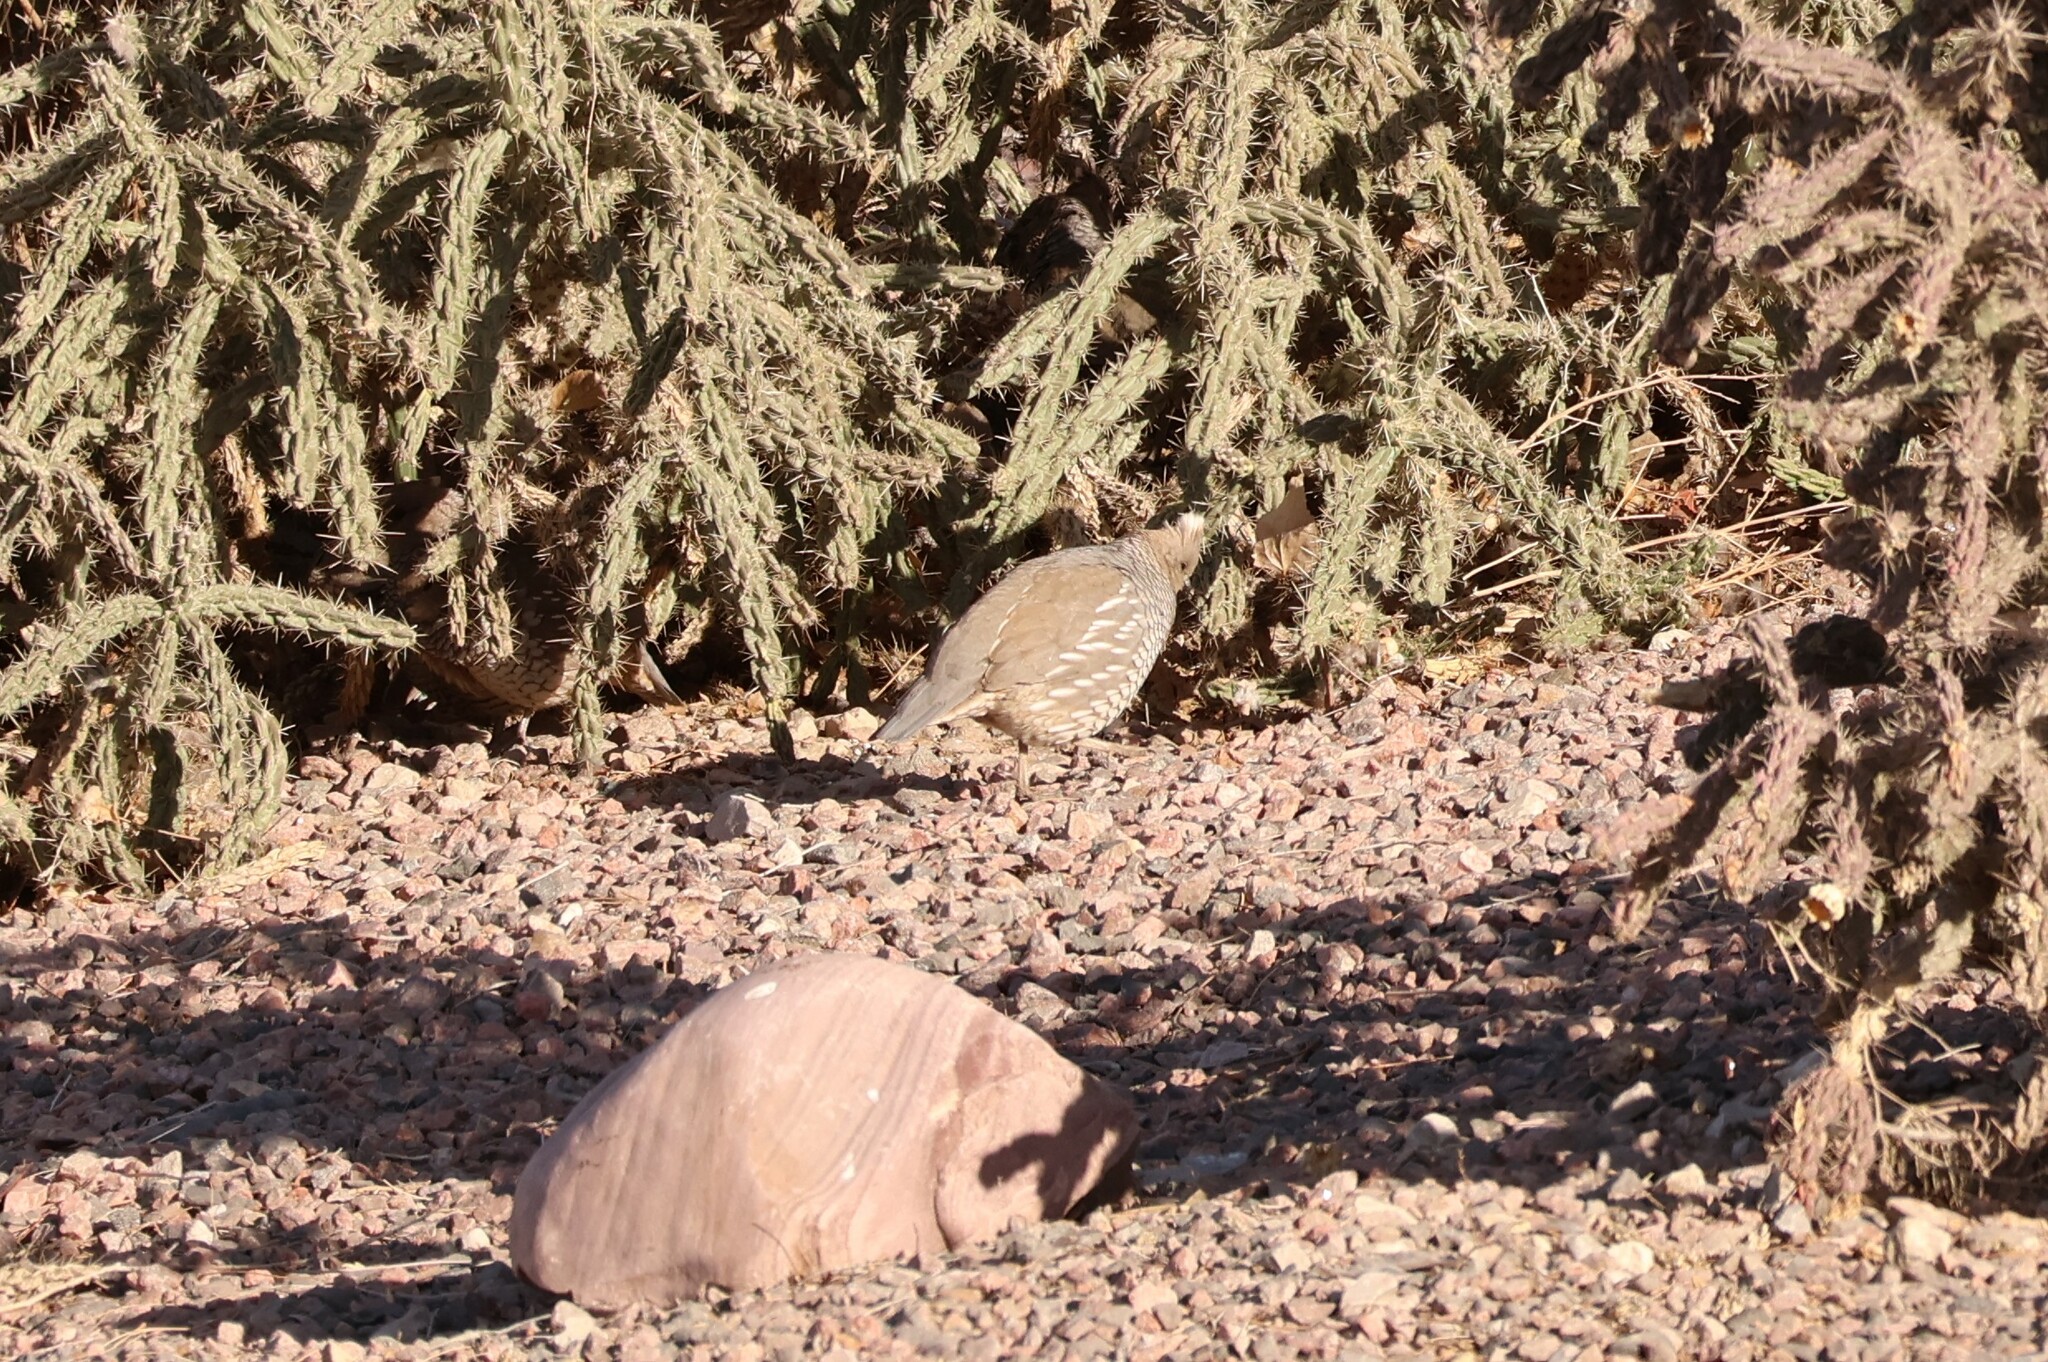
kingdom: Animalia
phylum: Chordata
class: Aves
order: Galliformes
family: Odontophoridae
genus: Callipepla
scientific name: Callipepla squamata
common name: Scaled quail
